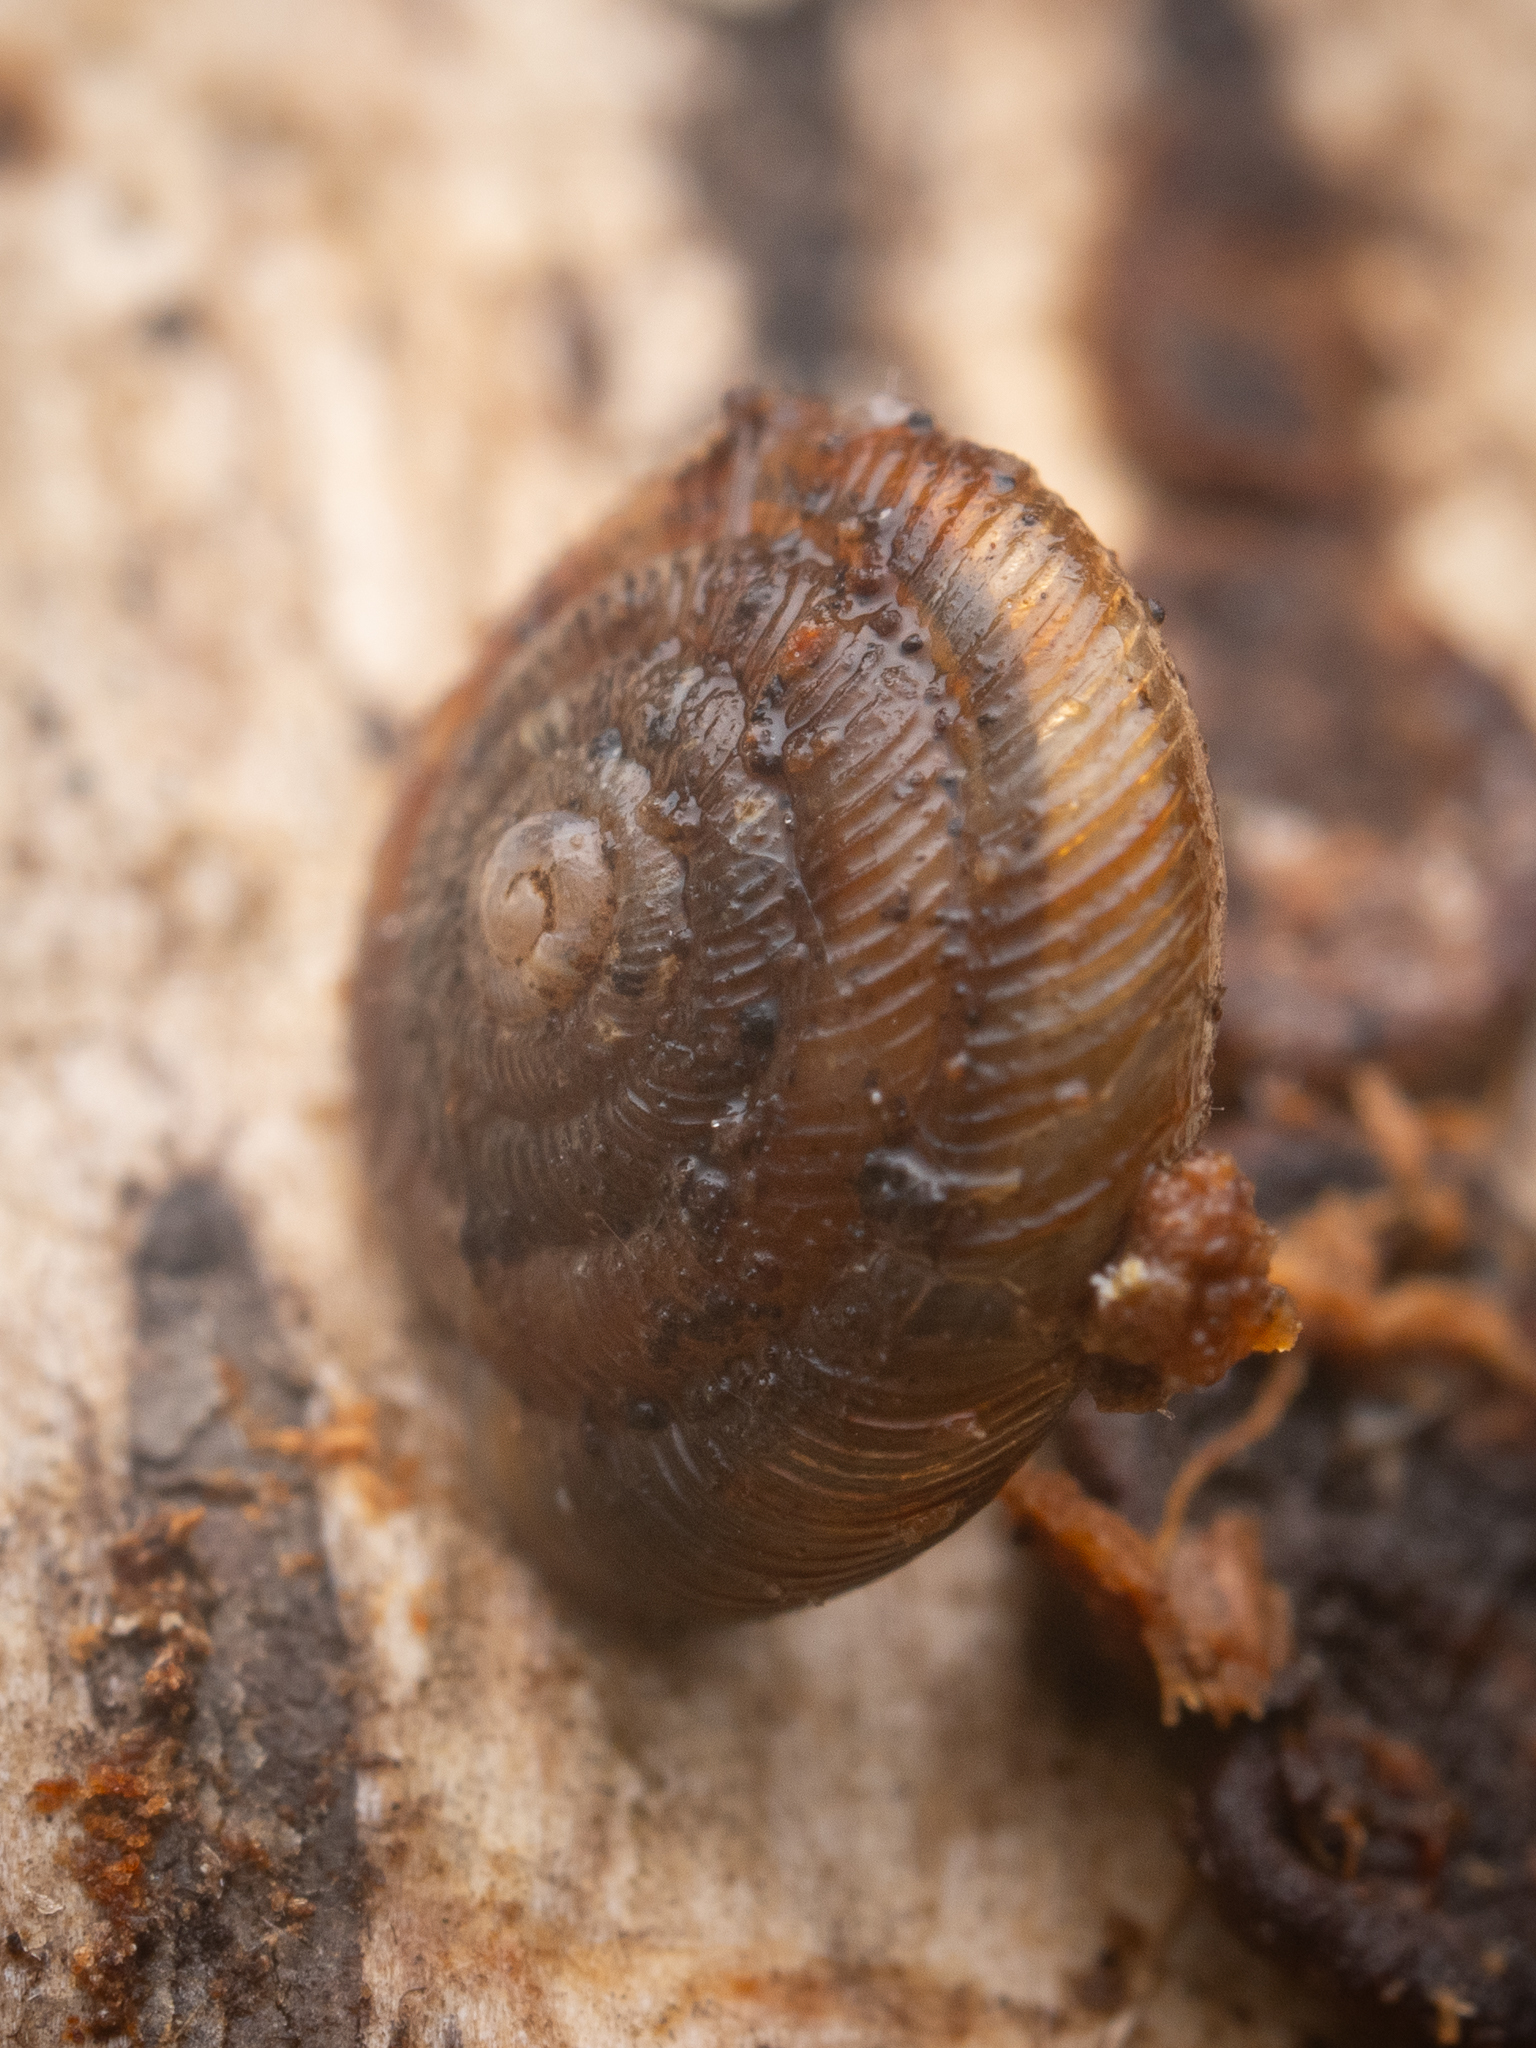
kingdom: Animalia
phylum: Mollusca
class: Gastropoda
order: Stylommatophora
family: Discidae
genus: Discus
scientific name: Discus rotundatus
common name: Rounded snail
